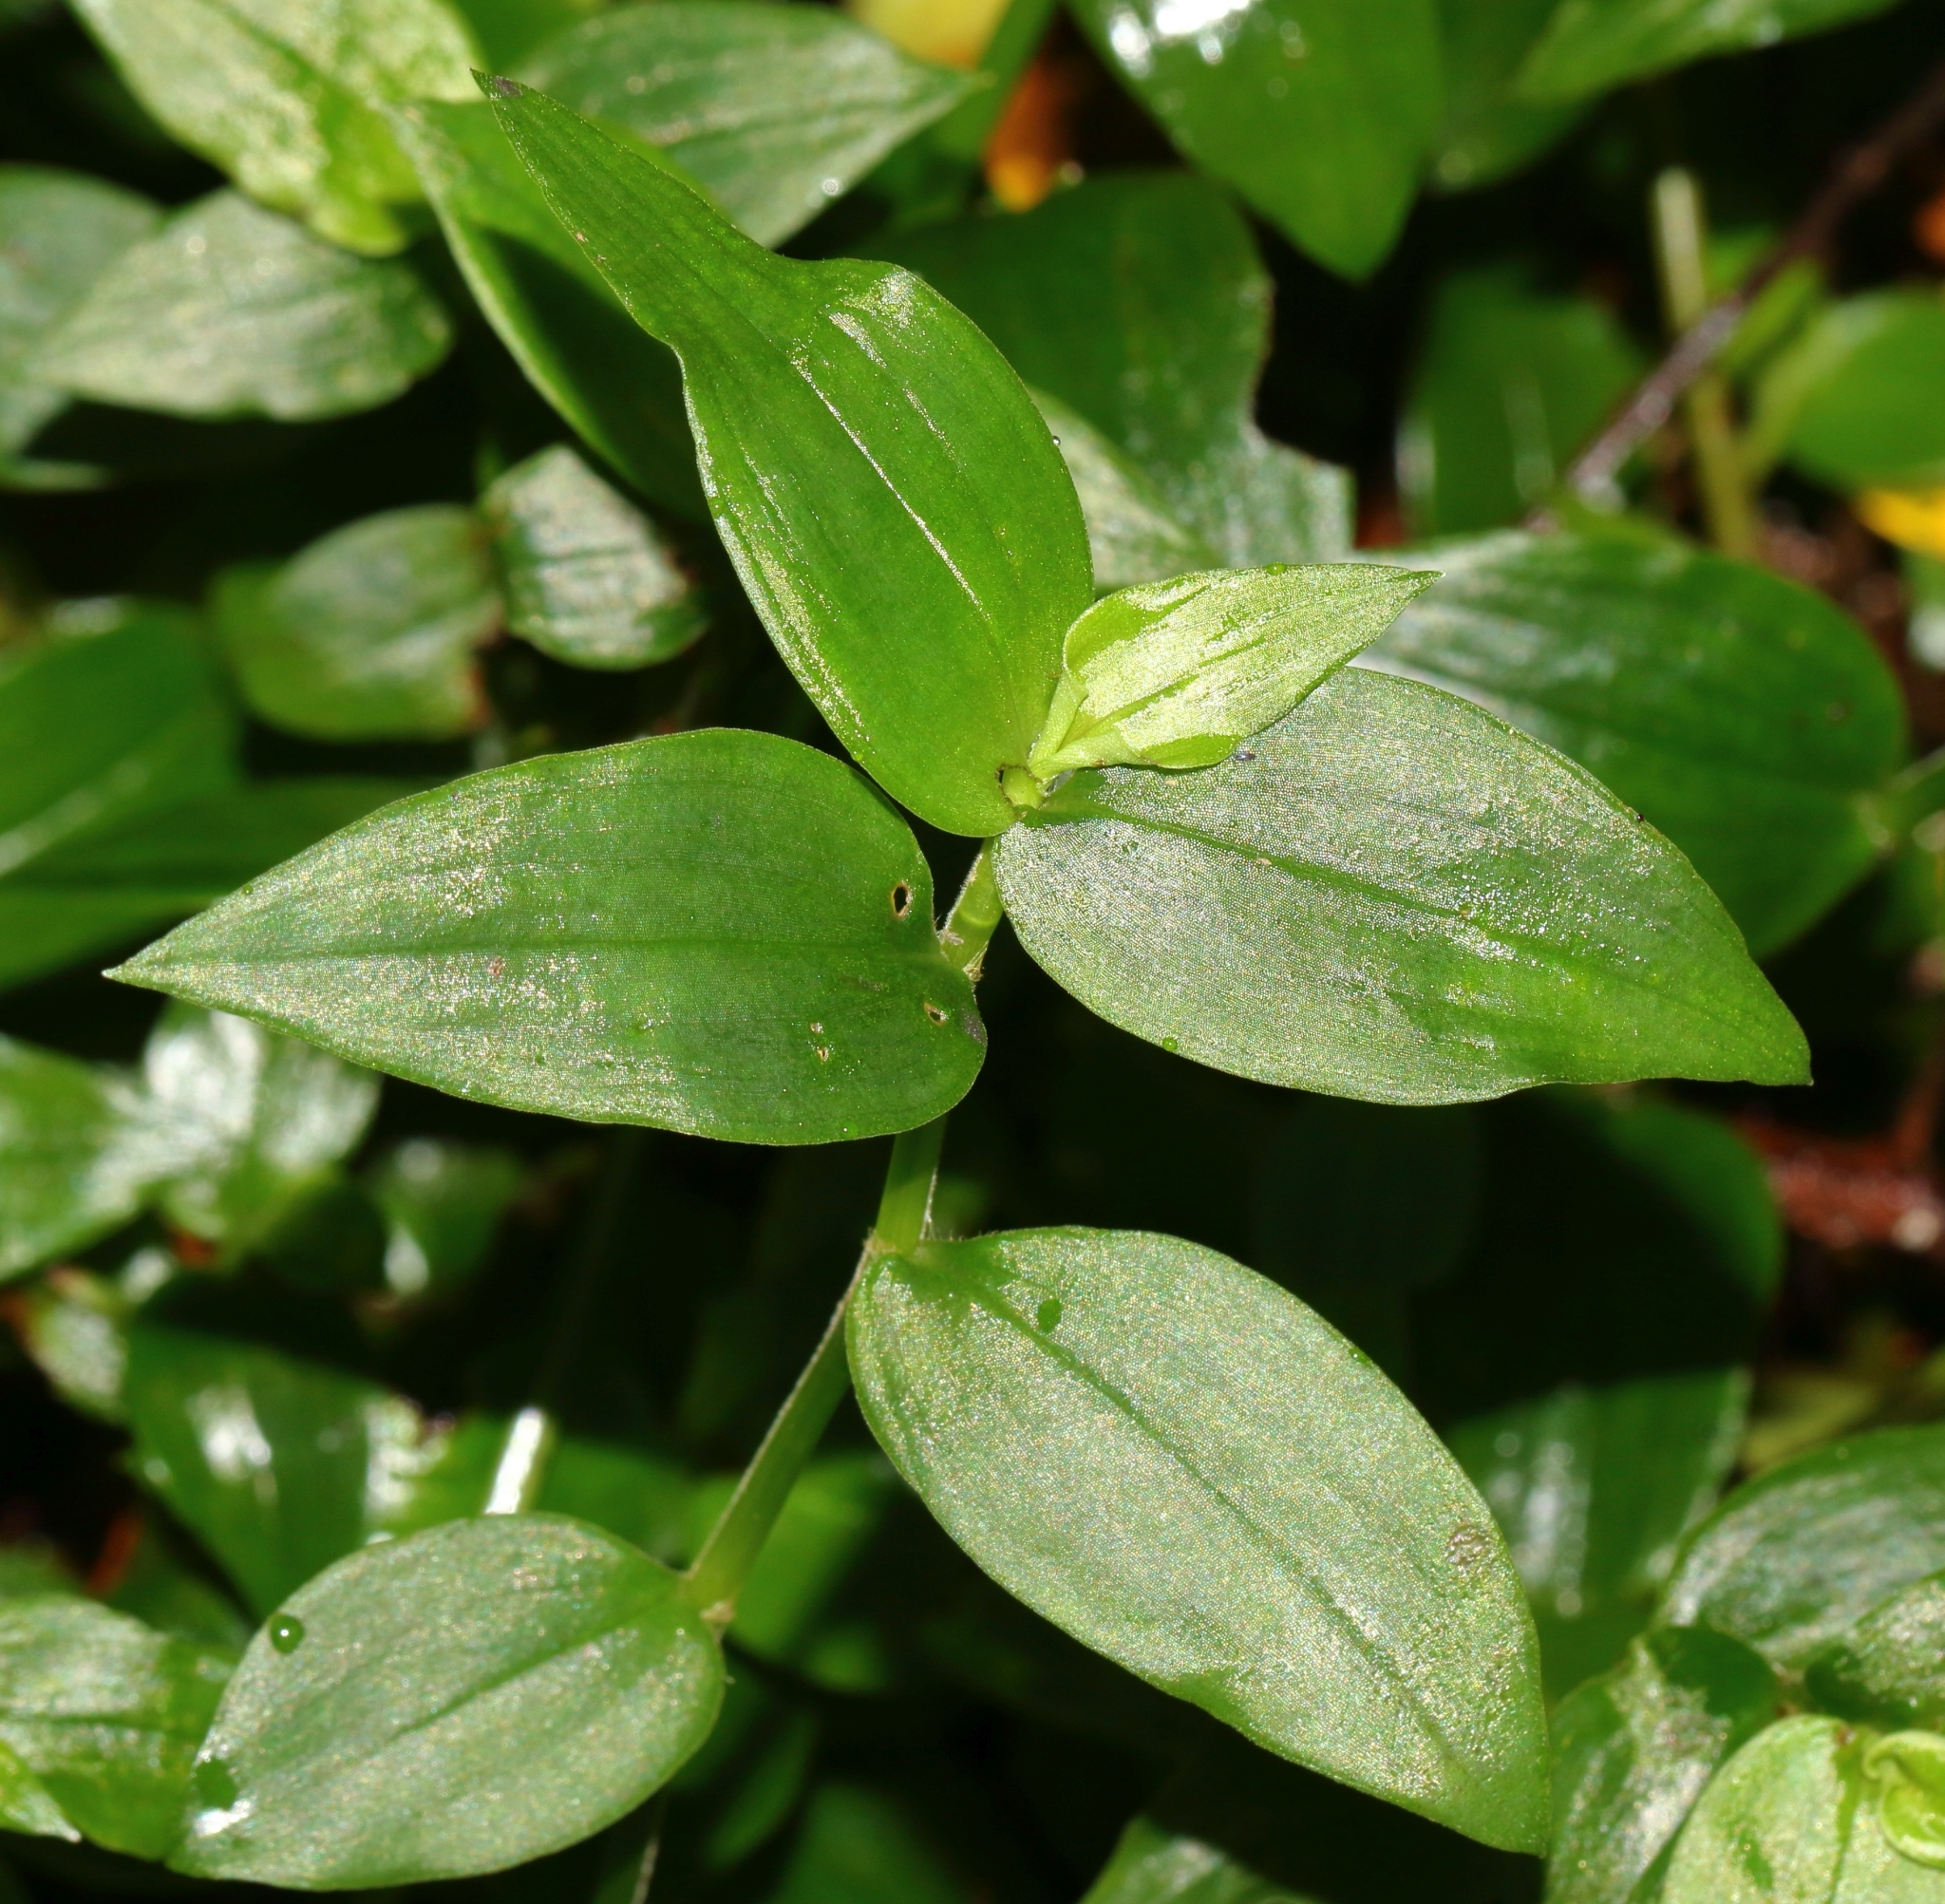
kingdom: Plantae
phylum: Tracheophyta
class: Liliopsida
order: Commelinales
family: Commelinaceae
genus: Tradescantia
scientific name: Tradescantia fluminensis
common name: Wandering-jew
